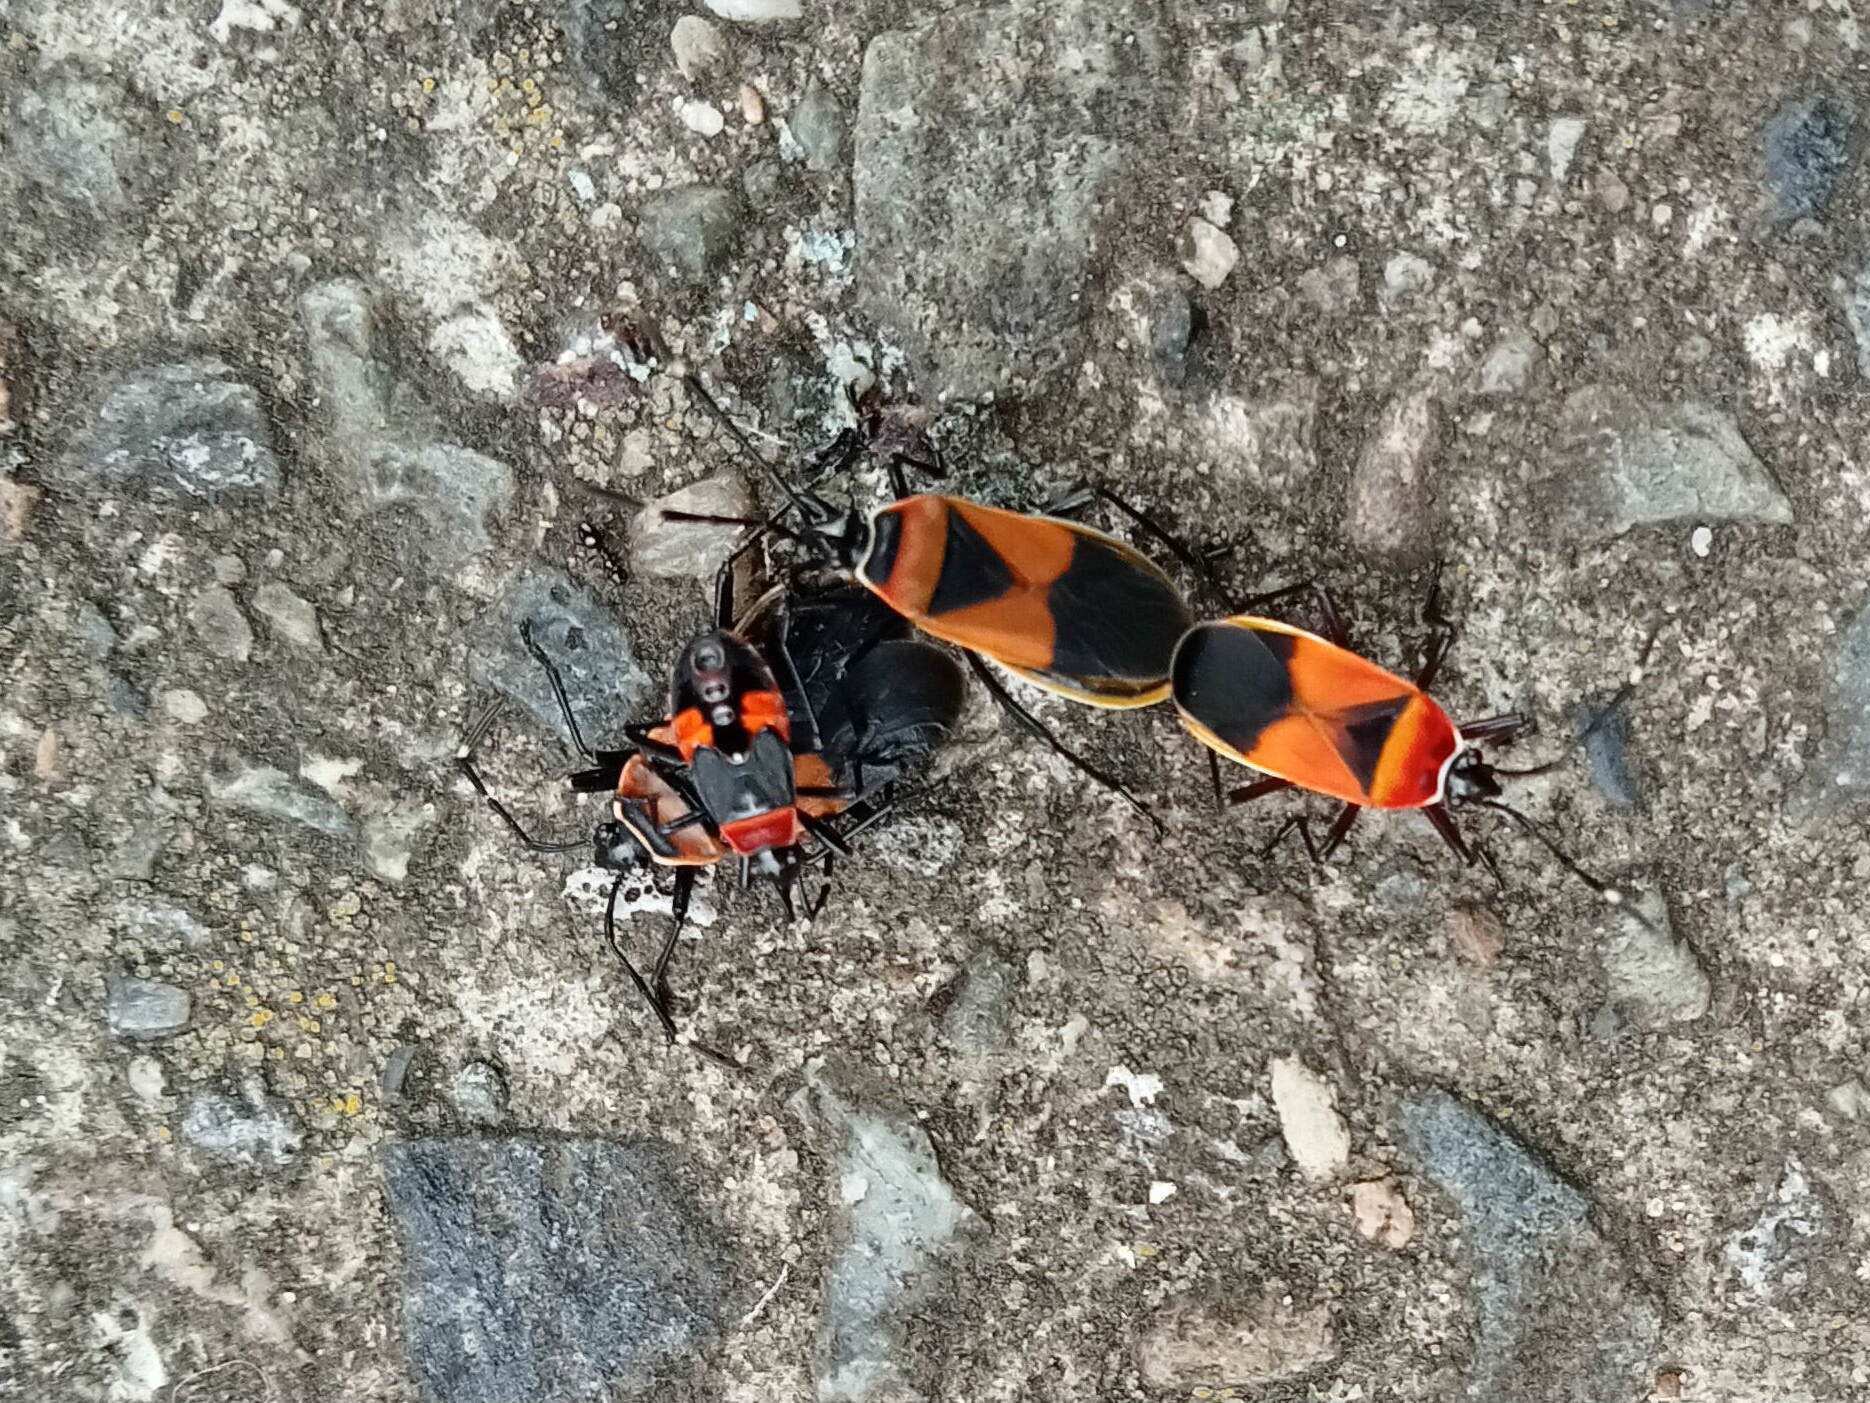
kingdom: Animalia
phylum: Arthropoda
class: Insecta
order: Hemiptera
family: Pyrrhocoridae
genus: Dindymus
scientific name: Dindymus
